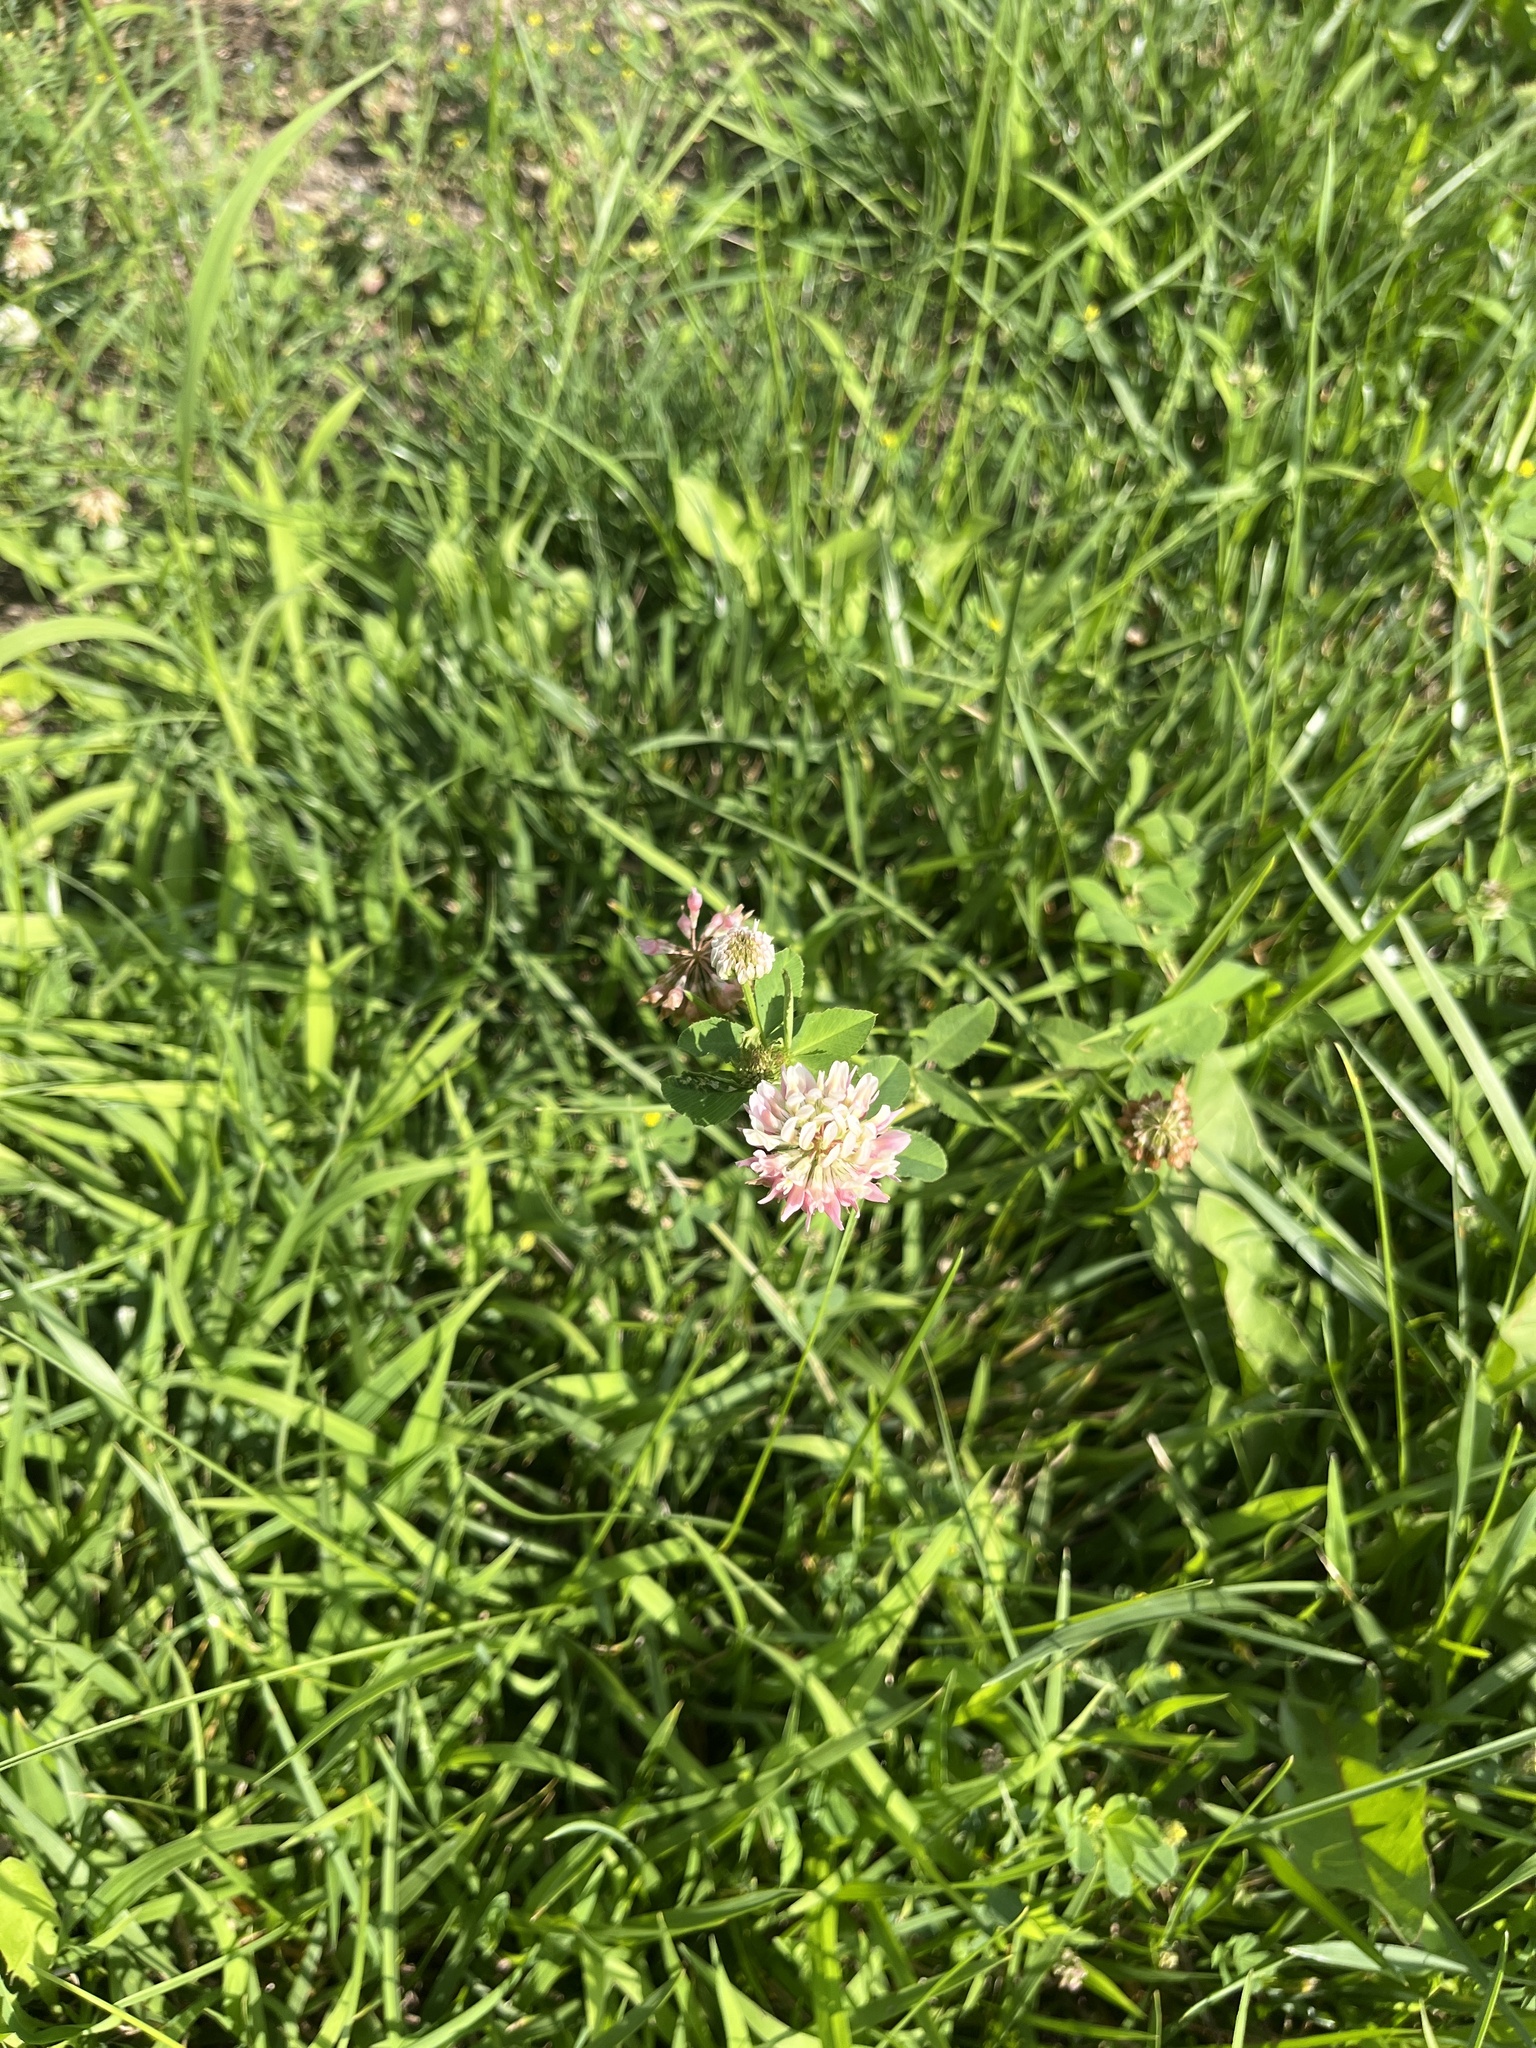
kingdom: Plantae
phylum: Tracheophyta
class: Magnoliopsida
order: Fabales
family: Fabaceae
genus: Trifolium
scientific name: Trifolium hybridum
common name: Alsike clover
